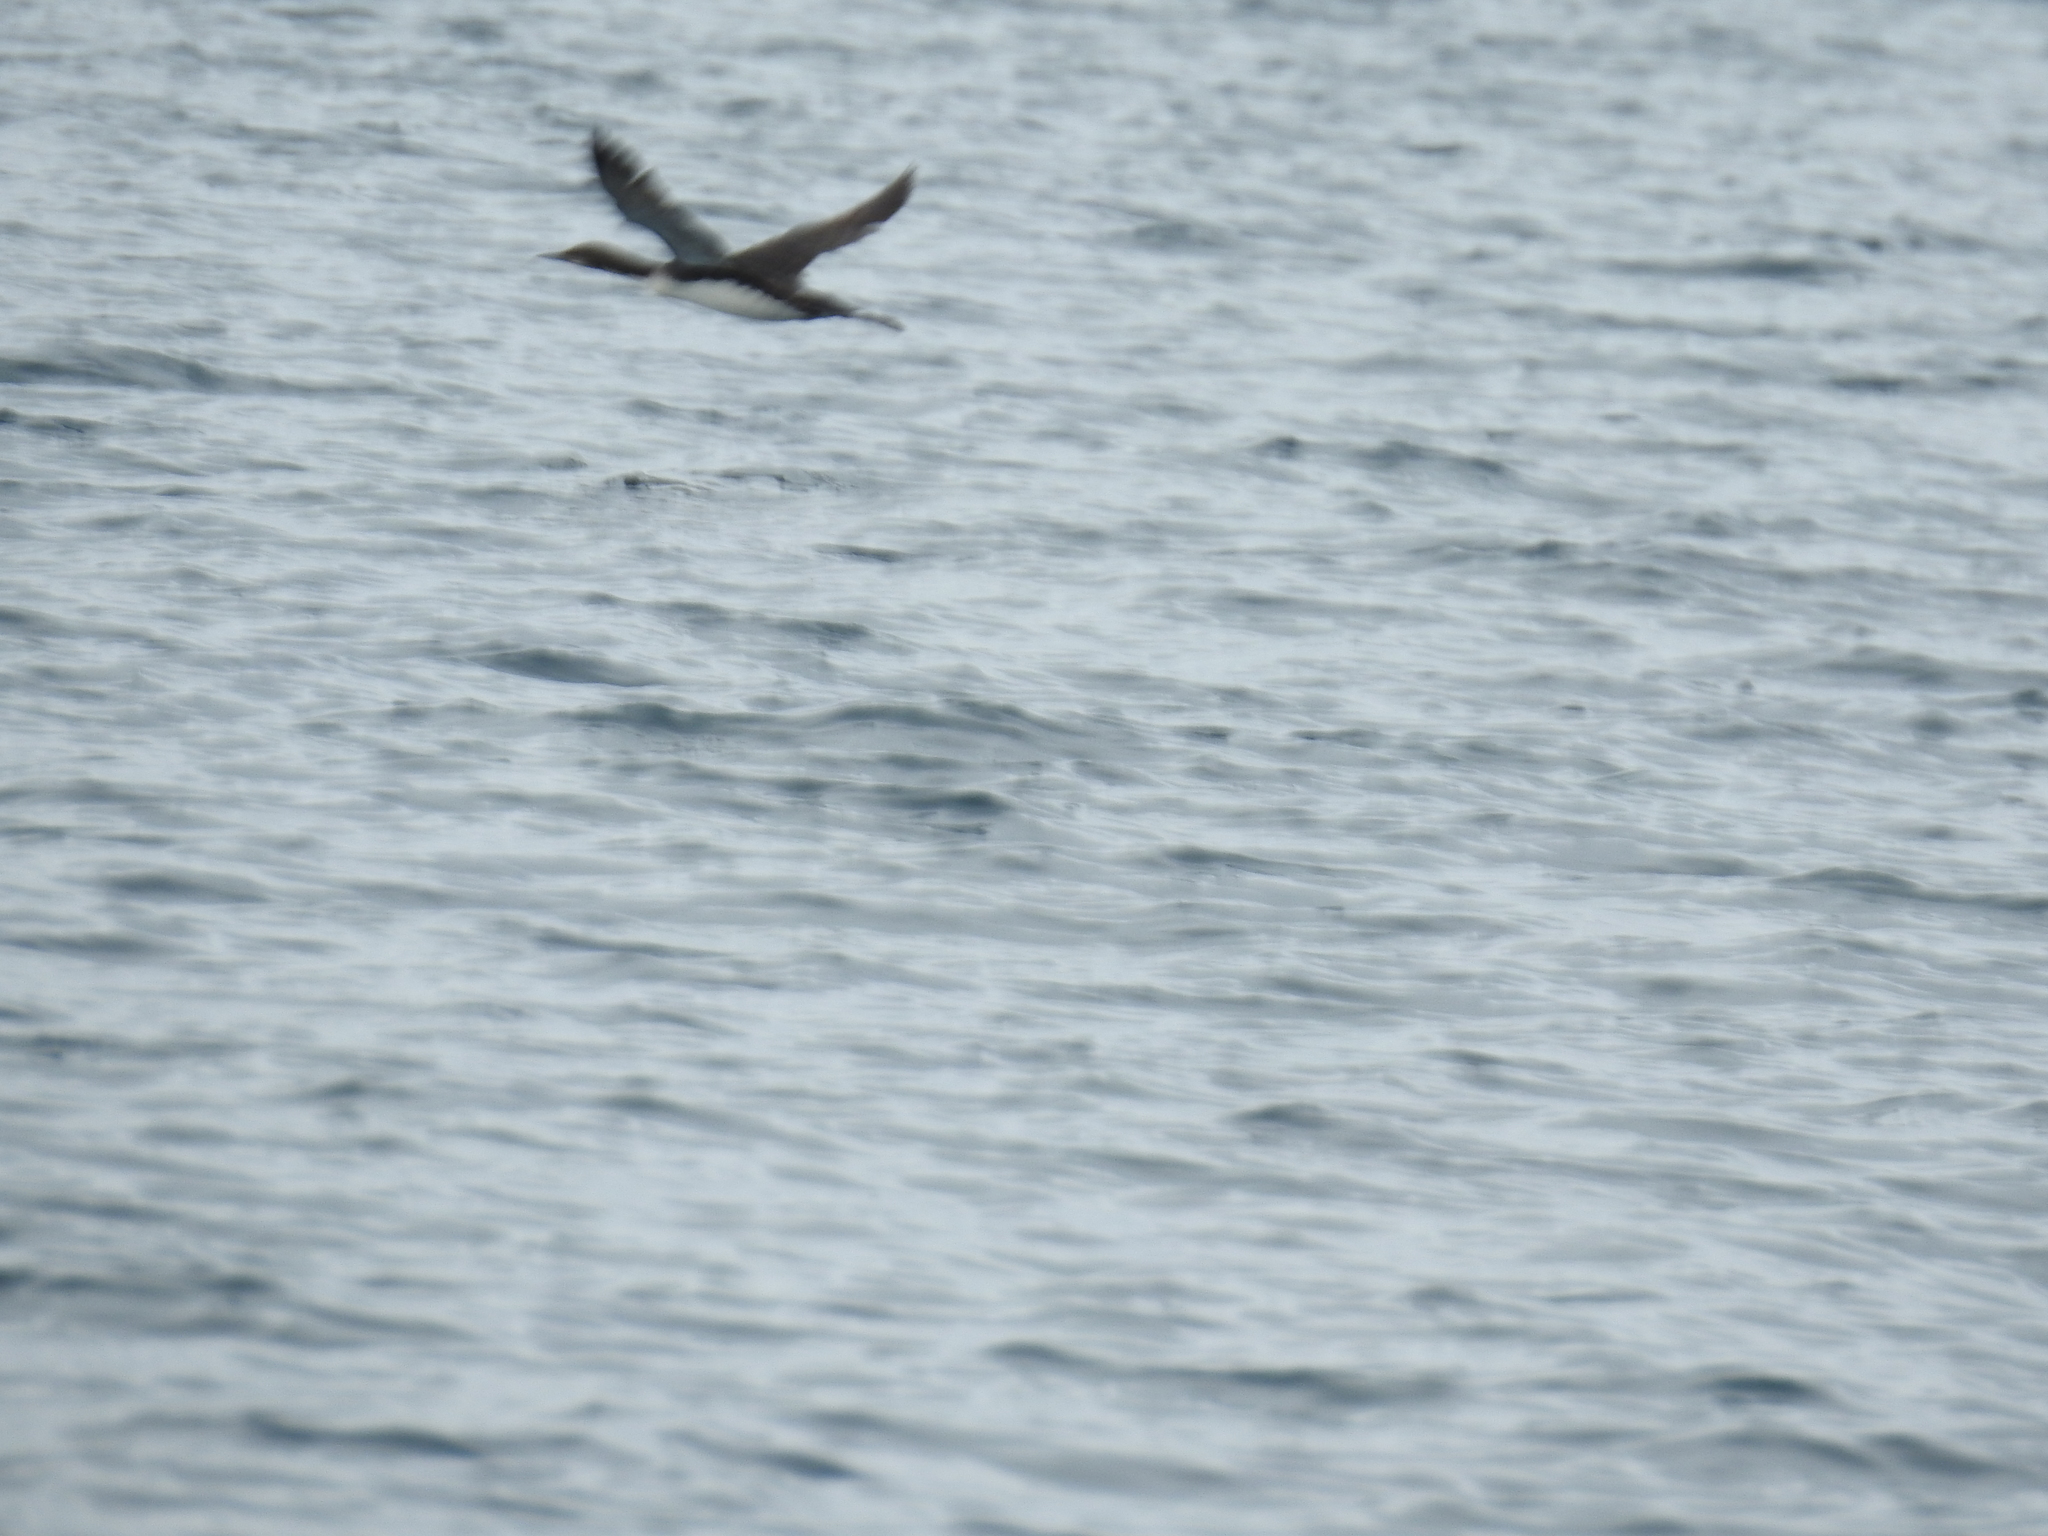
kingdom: Animalia
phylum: Chordata
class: Aves
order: Gaviiformes
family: Gaviidae
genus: Gavia
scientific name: Gavia pacifica
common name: Pacific loon
